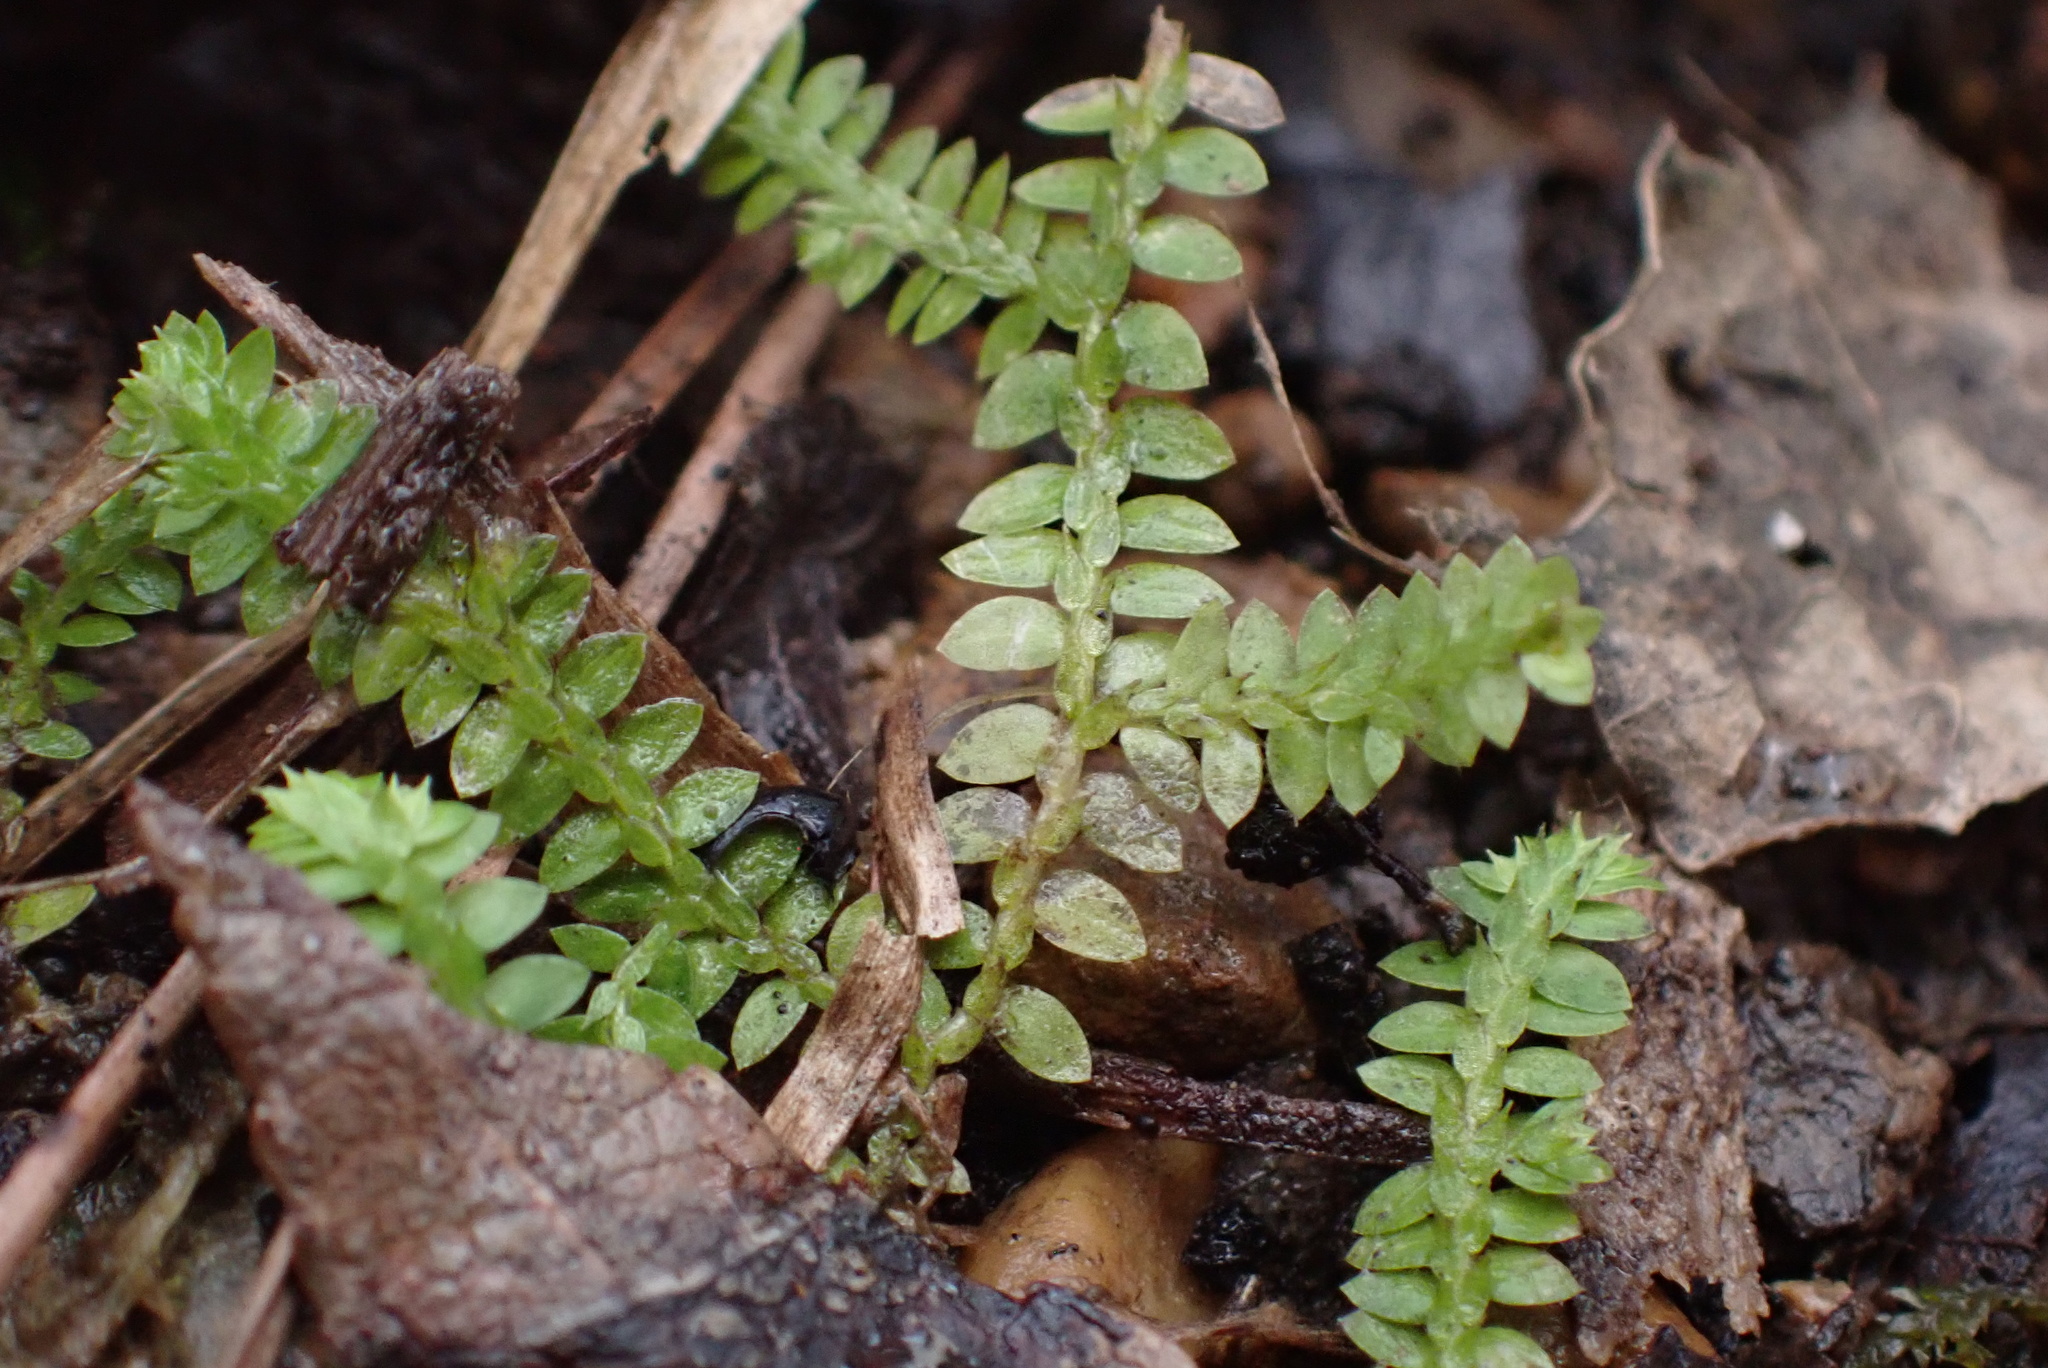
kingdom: Plantae
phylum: Tracheophyta
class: Lycopodiopsida
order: Selaginellales
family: Selaginellaceae
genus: Selaginella
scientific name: Selaginella apoda
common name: Creeping spikemoss
